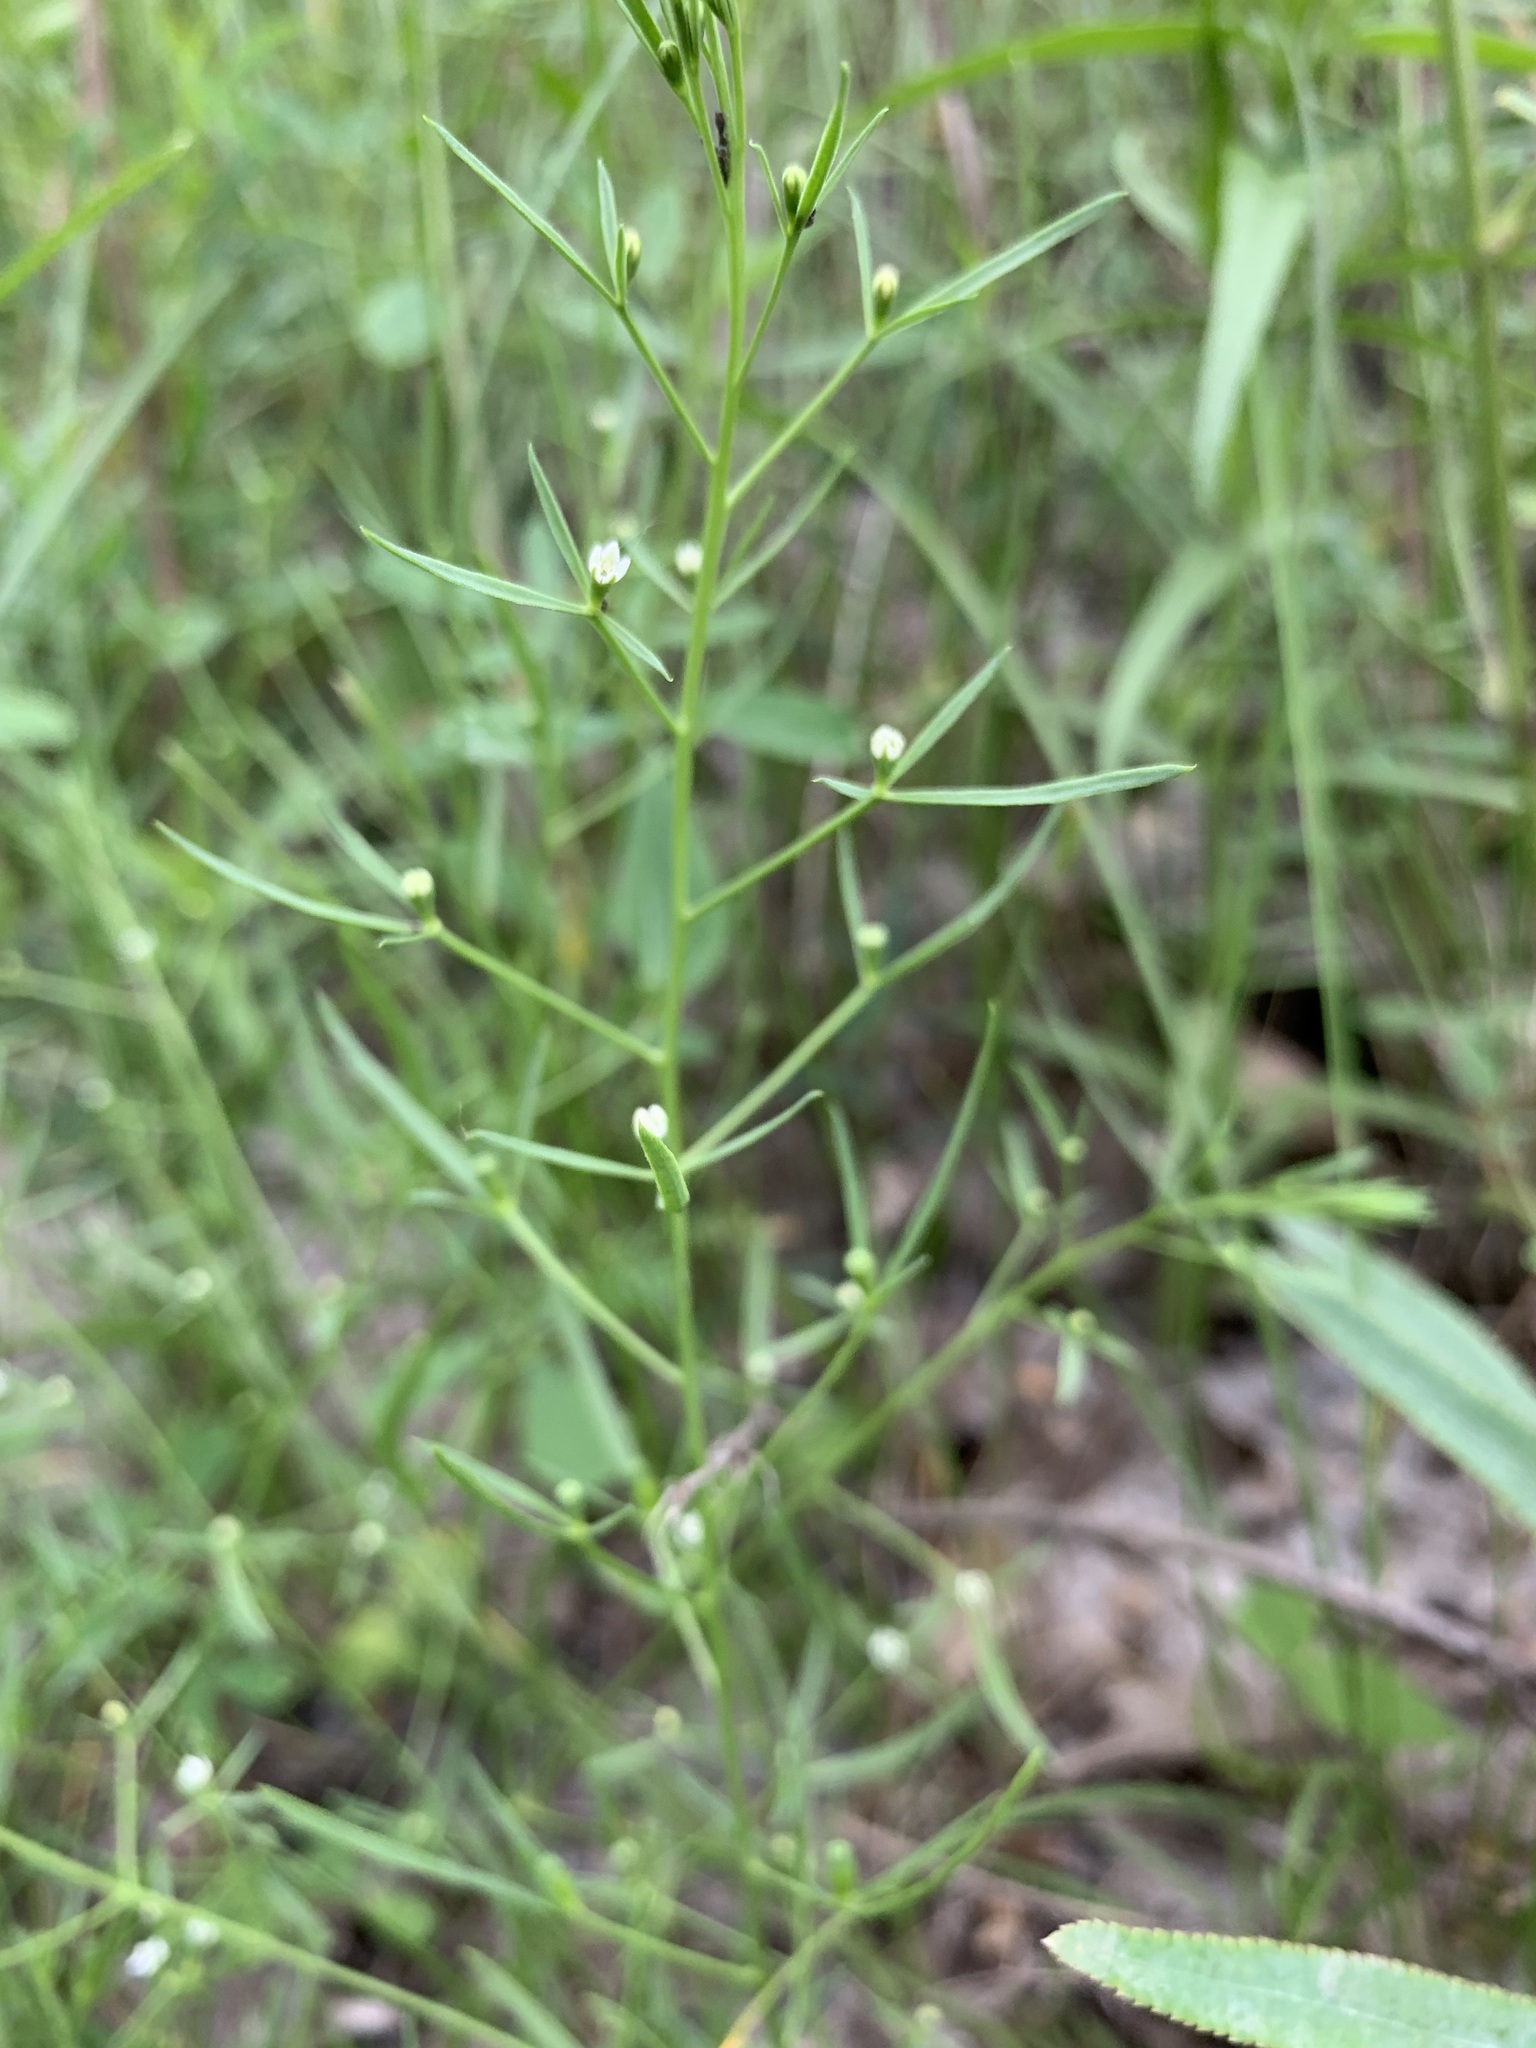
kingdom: Plantae
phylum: Tracheophyta
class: Magnoliopsida
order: Santalales
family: Thesiaceae
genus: Thesium
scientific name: Thesium ramosum
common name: Field thesium
